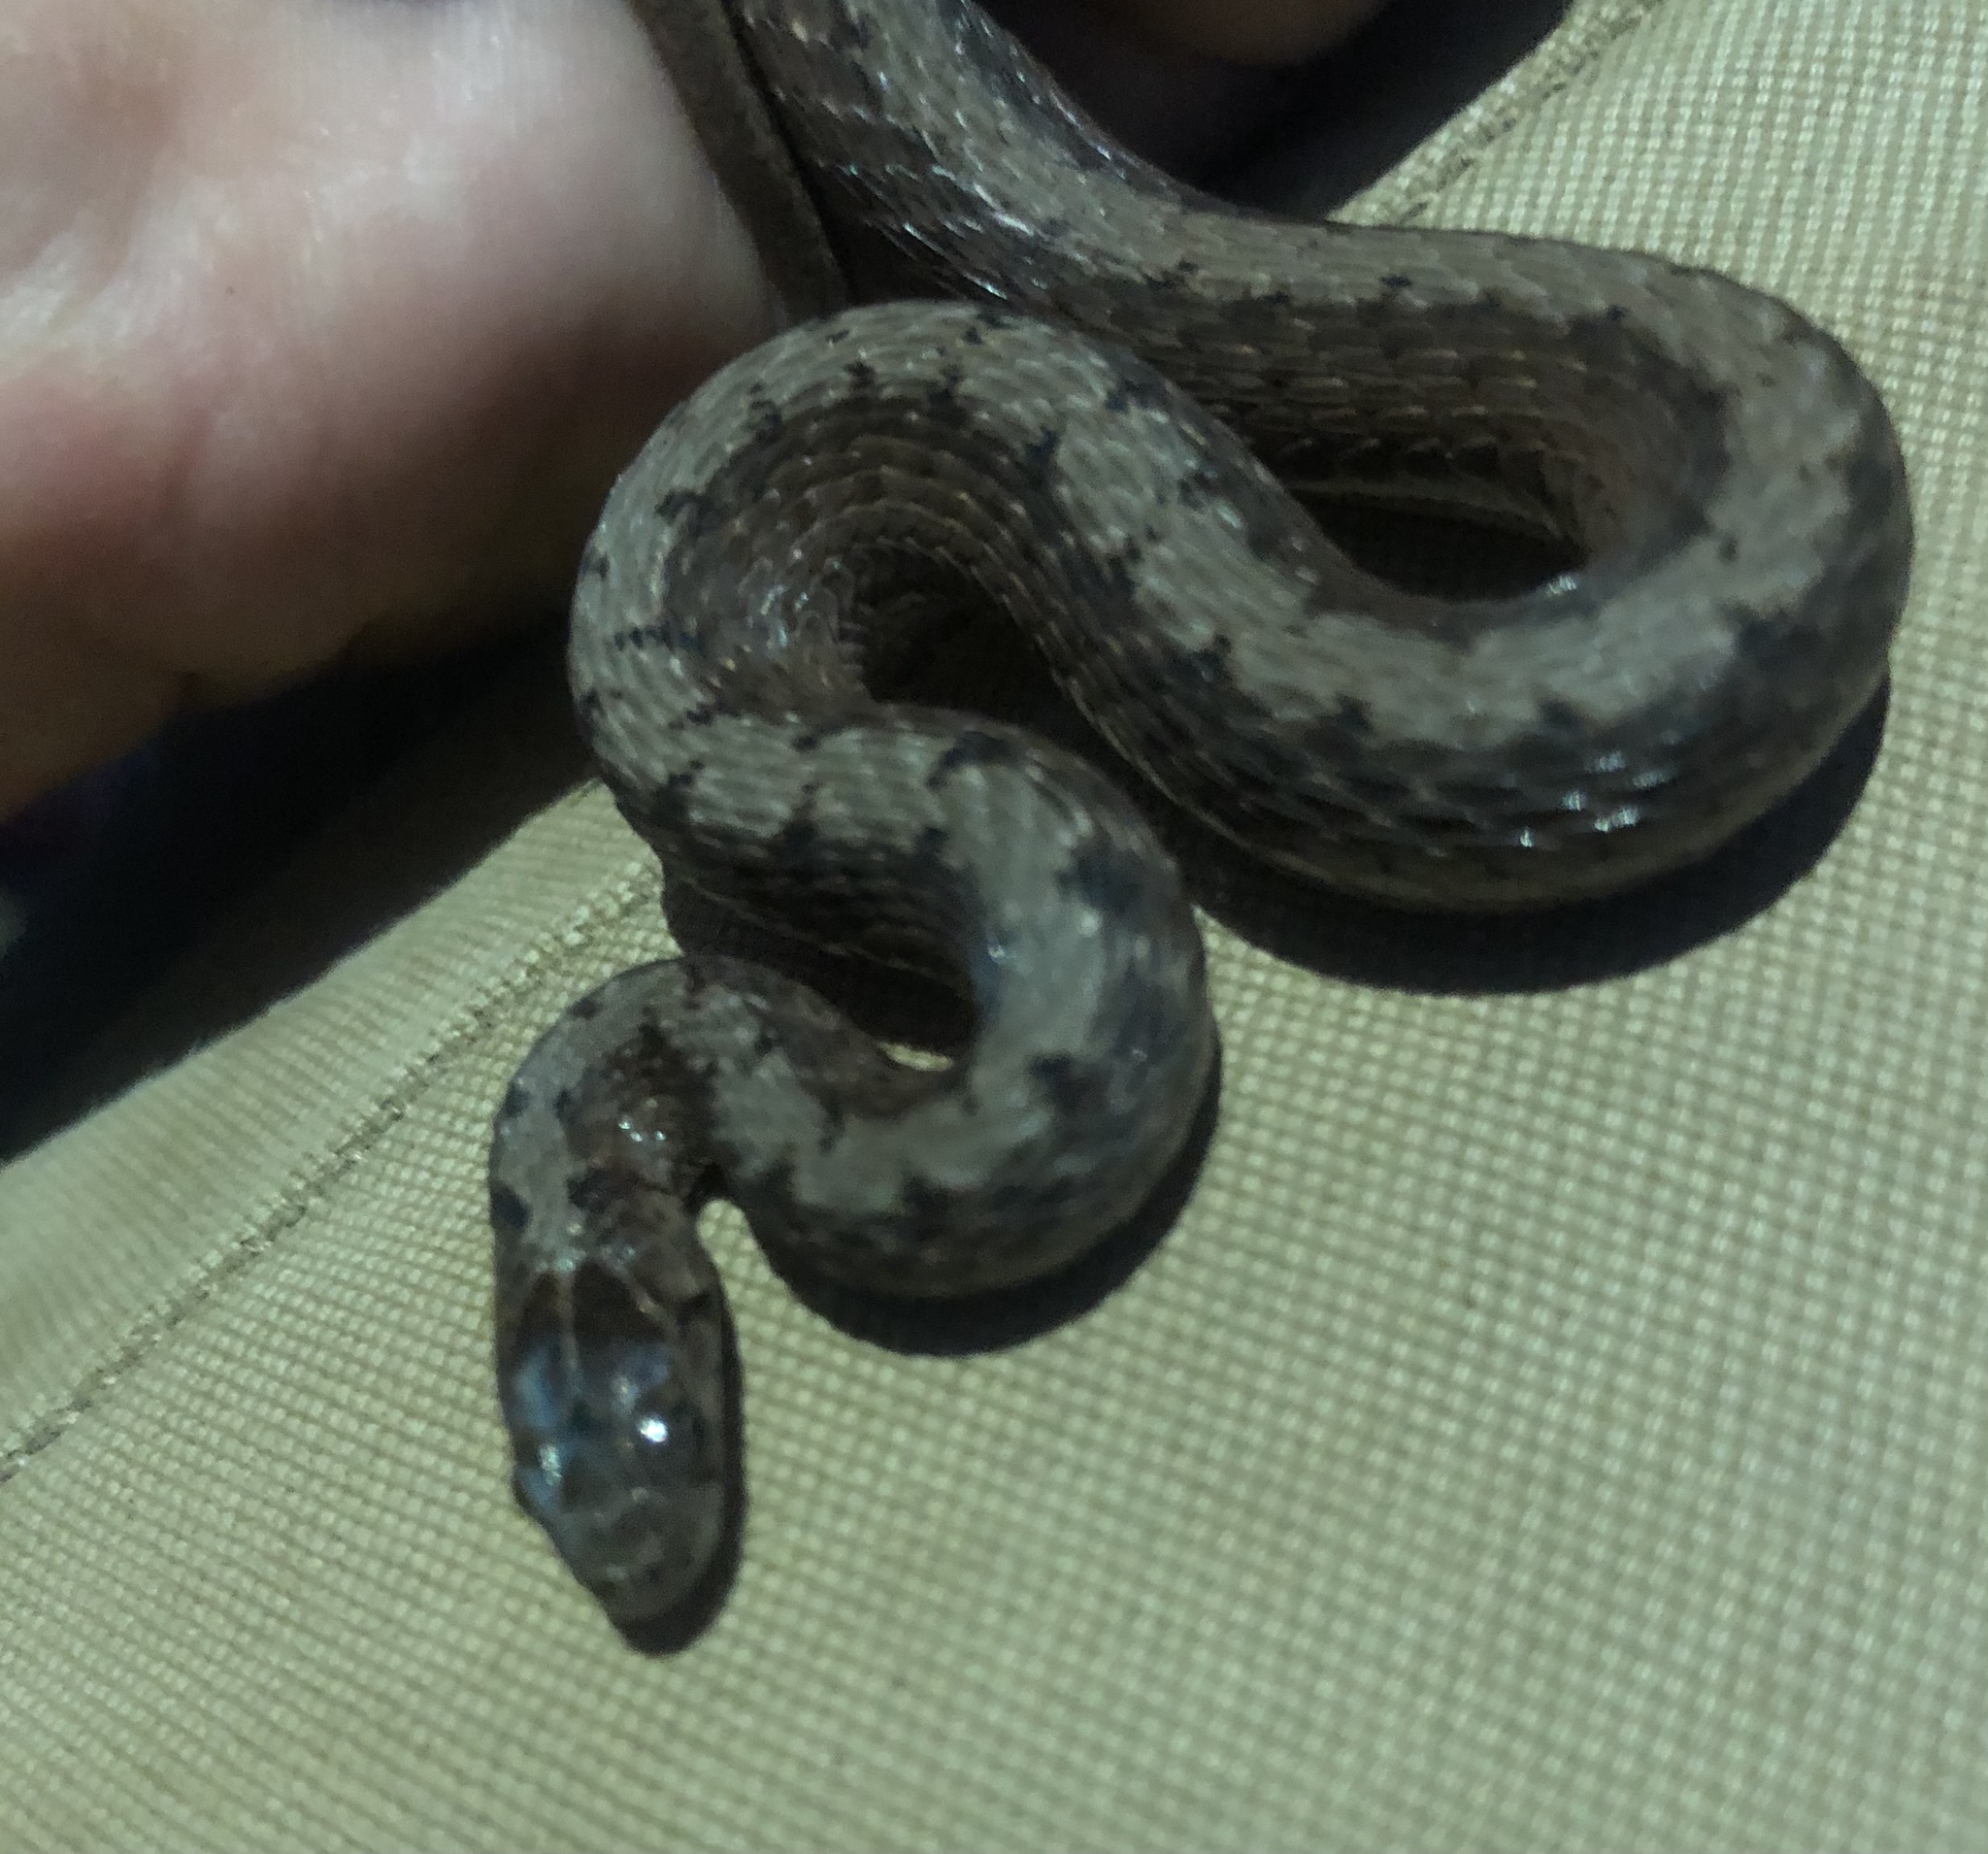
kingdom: Animalia
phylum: Chordata
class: Squamata
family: Colubridae
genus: Storeria
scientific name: Storeria dekayi
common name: (dekay’s) brown snake
